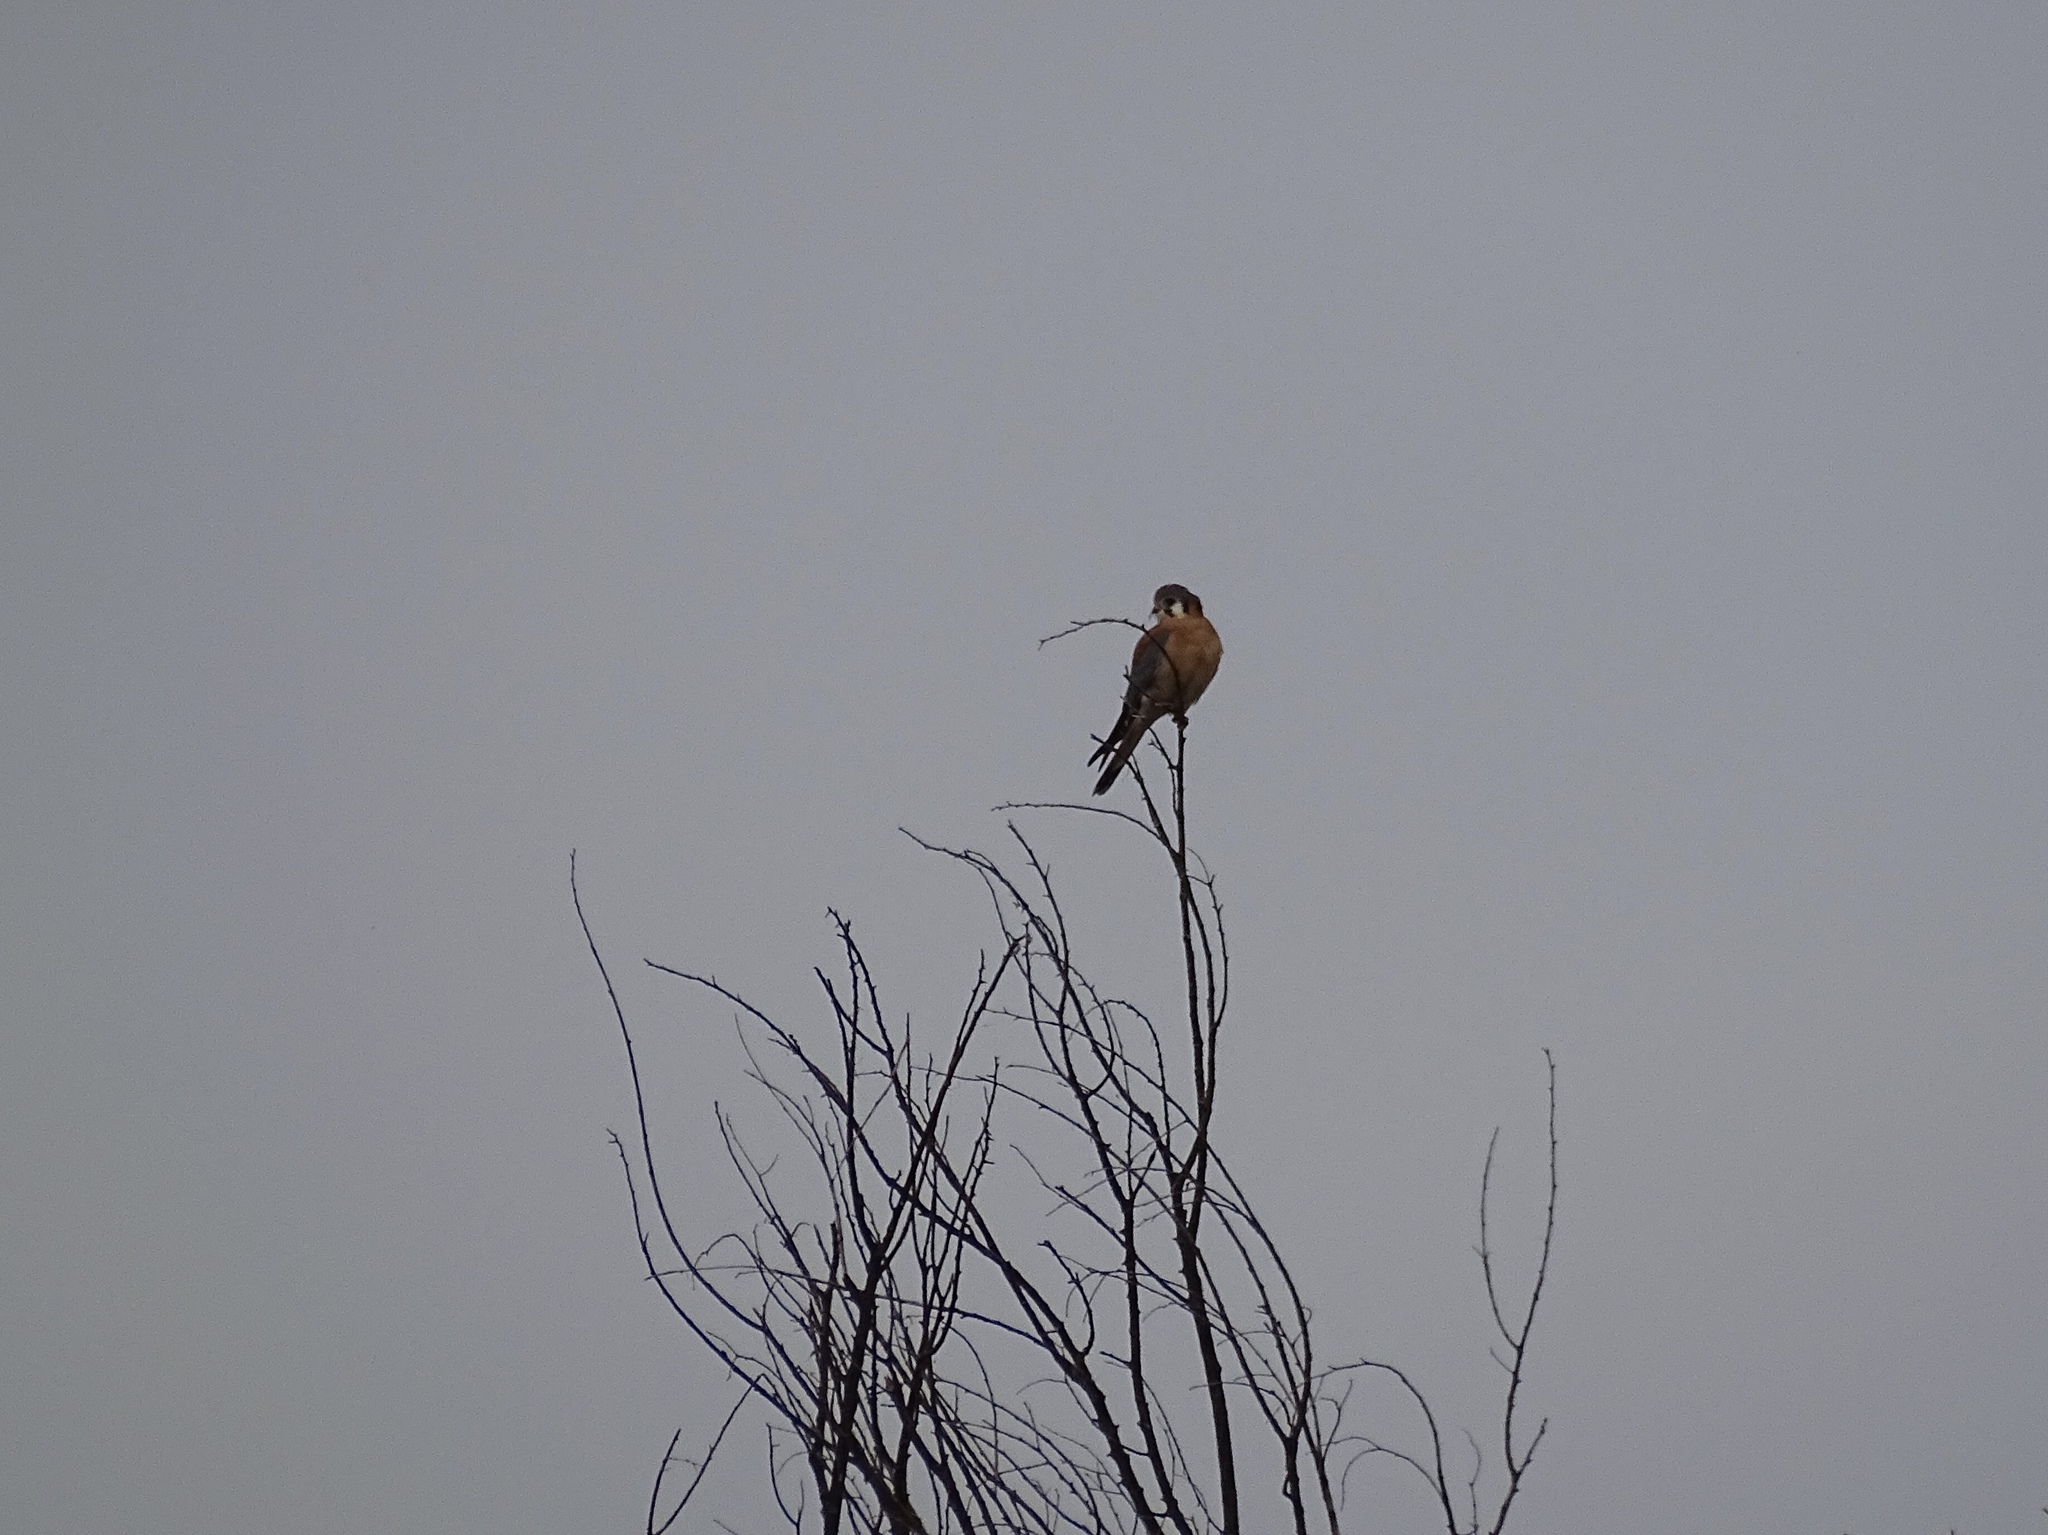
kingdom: Animalia
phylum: Chordata
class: Aves
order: Falconiformes
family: Falconidae
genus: Falco
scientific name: Falco sparverius
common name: American kestrel
